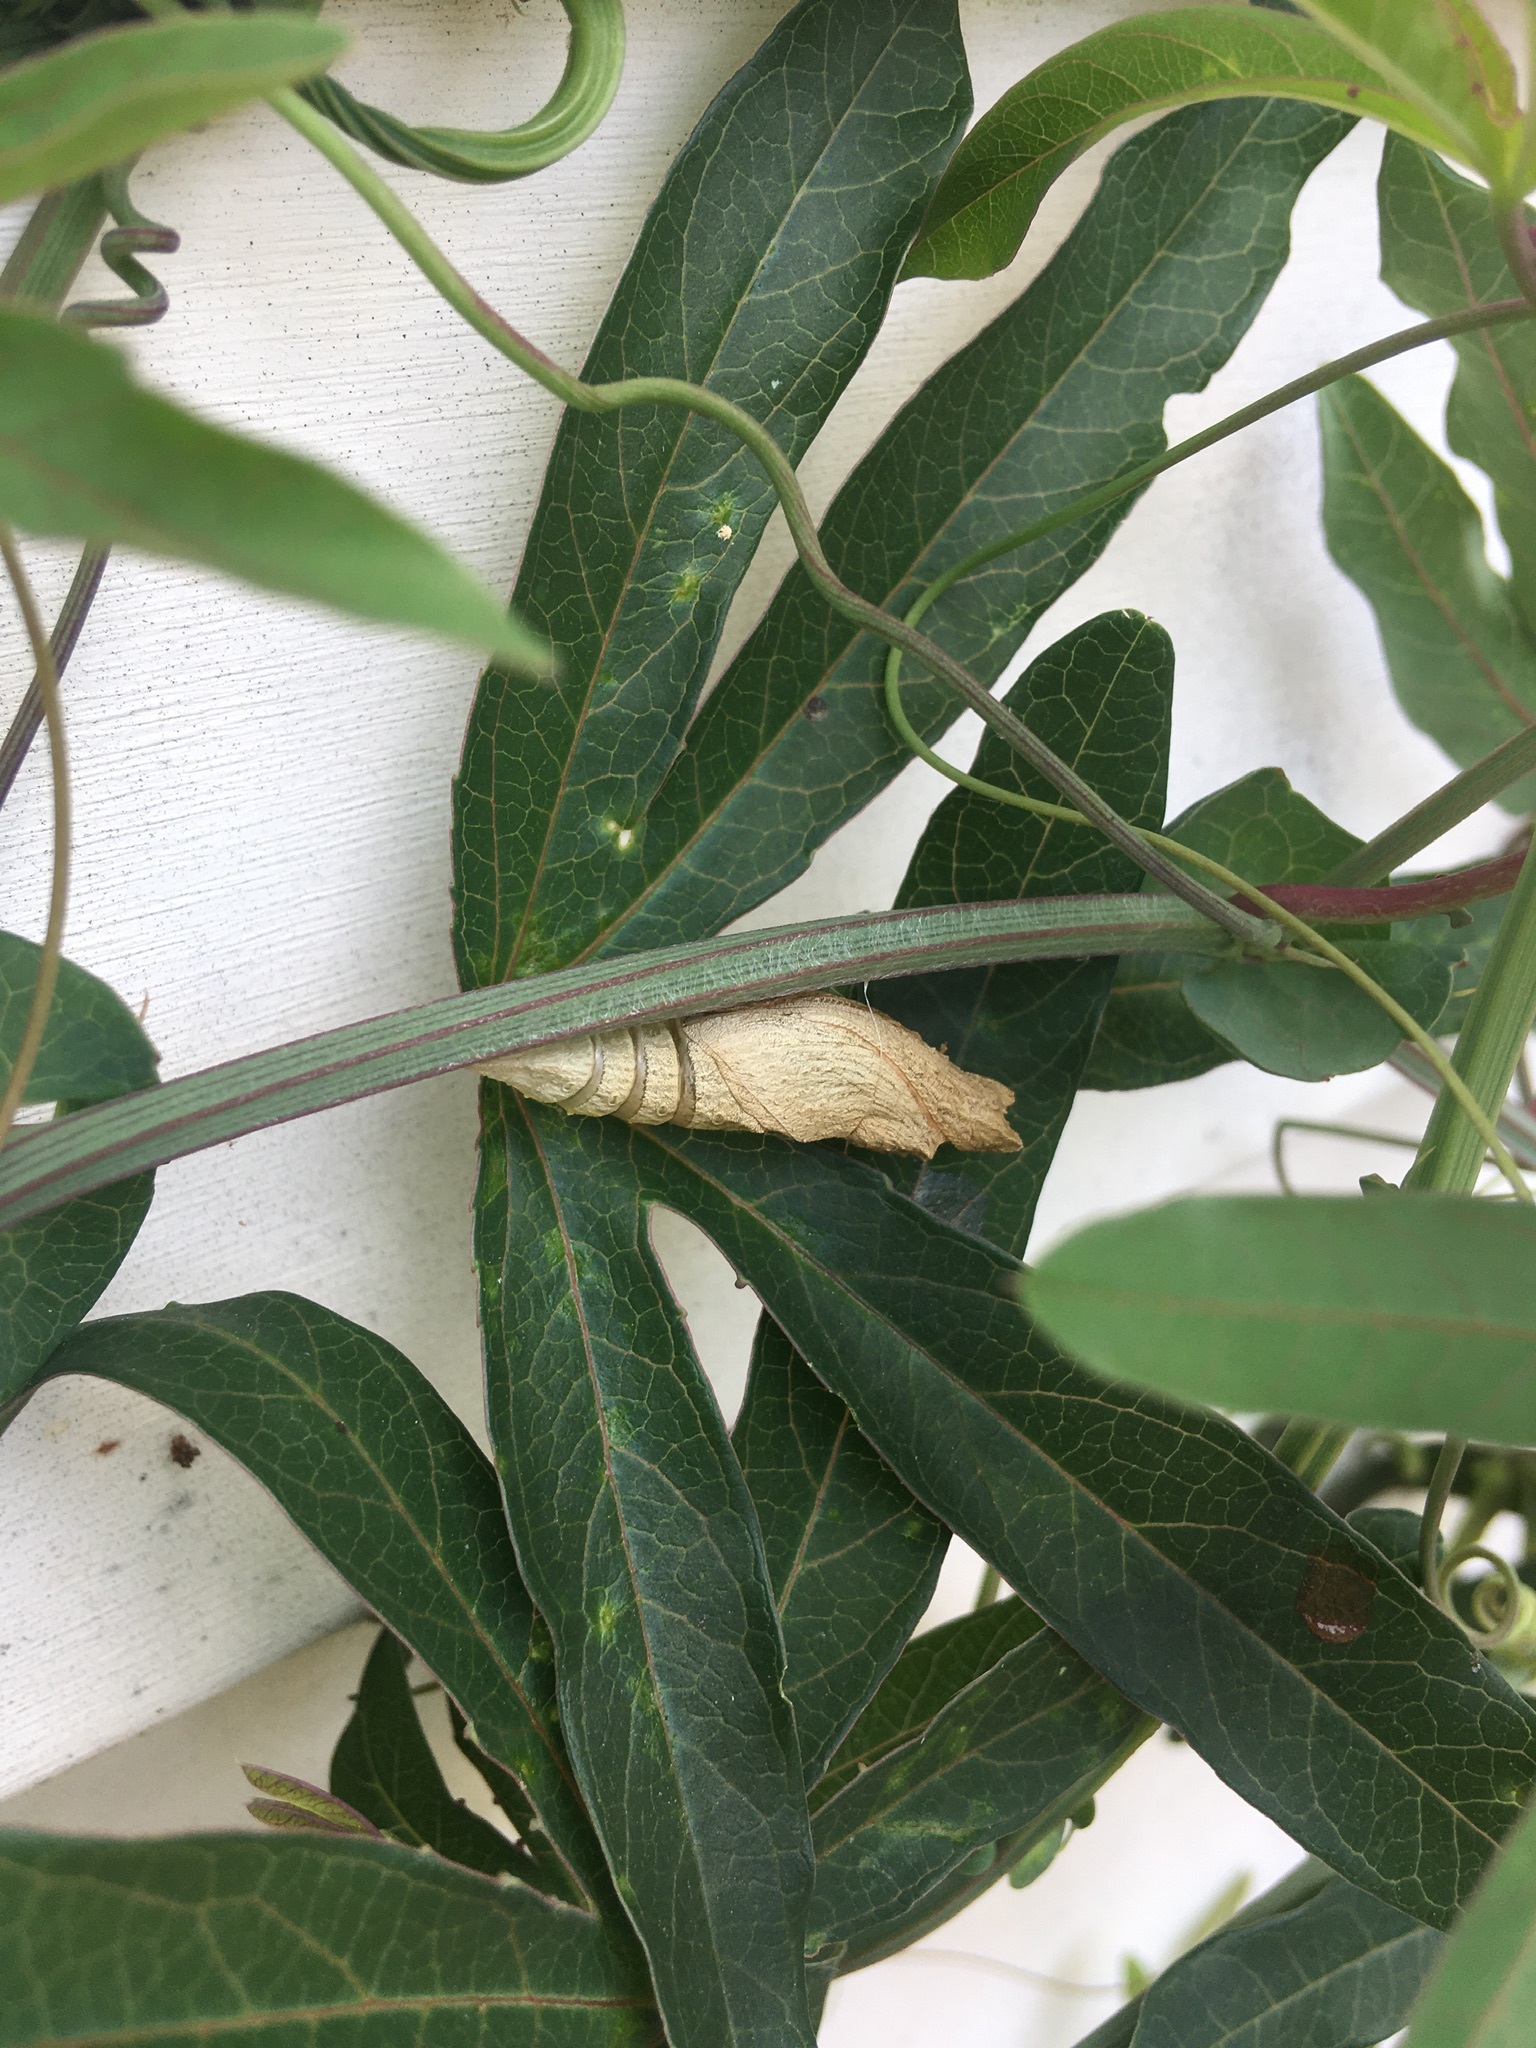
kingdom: Animalia
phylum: Arthropoda
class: Insecta
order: Lepidoptera
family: Papilionidae
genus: Papilio
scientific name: Papilio polyxenes
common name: Black swallowtail
